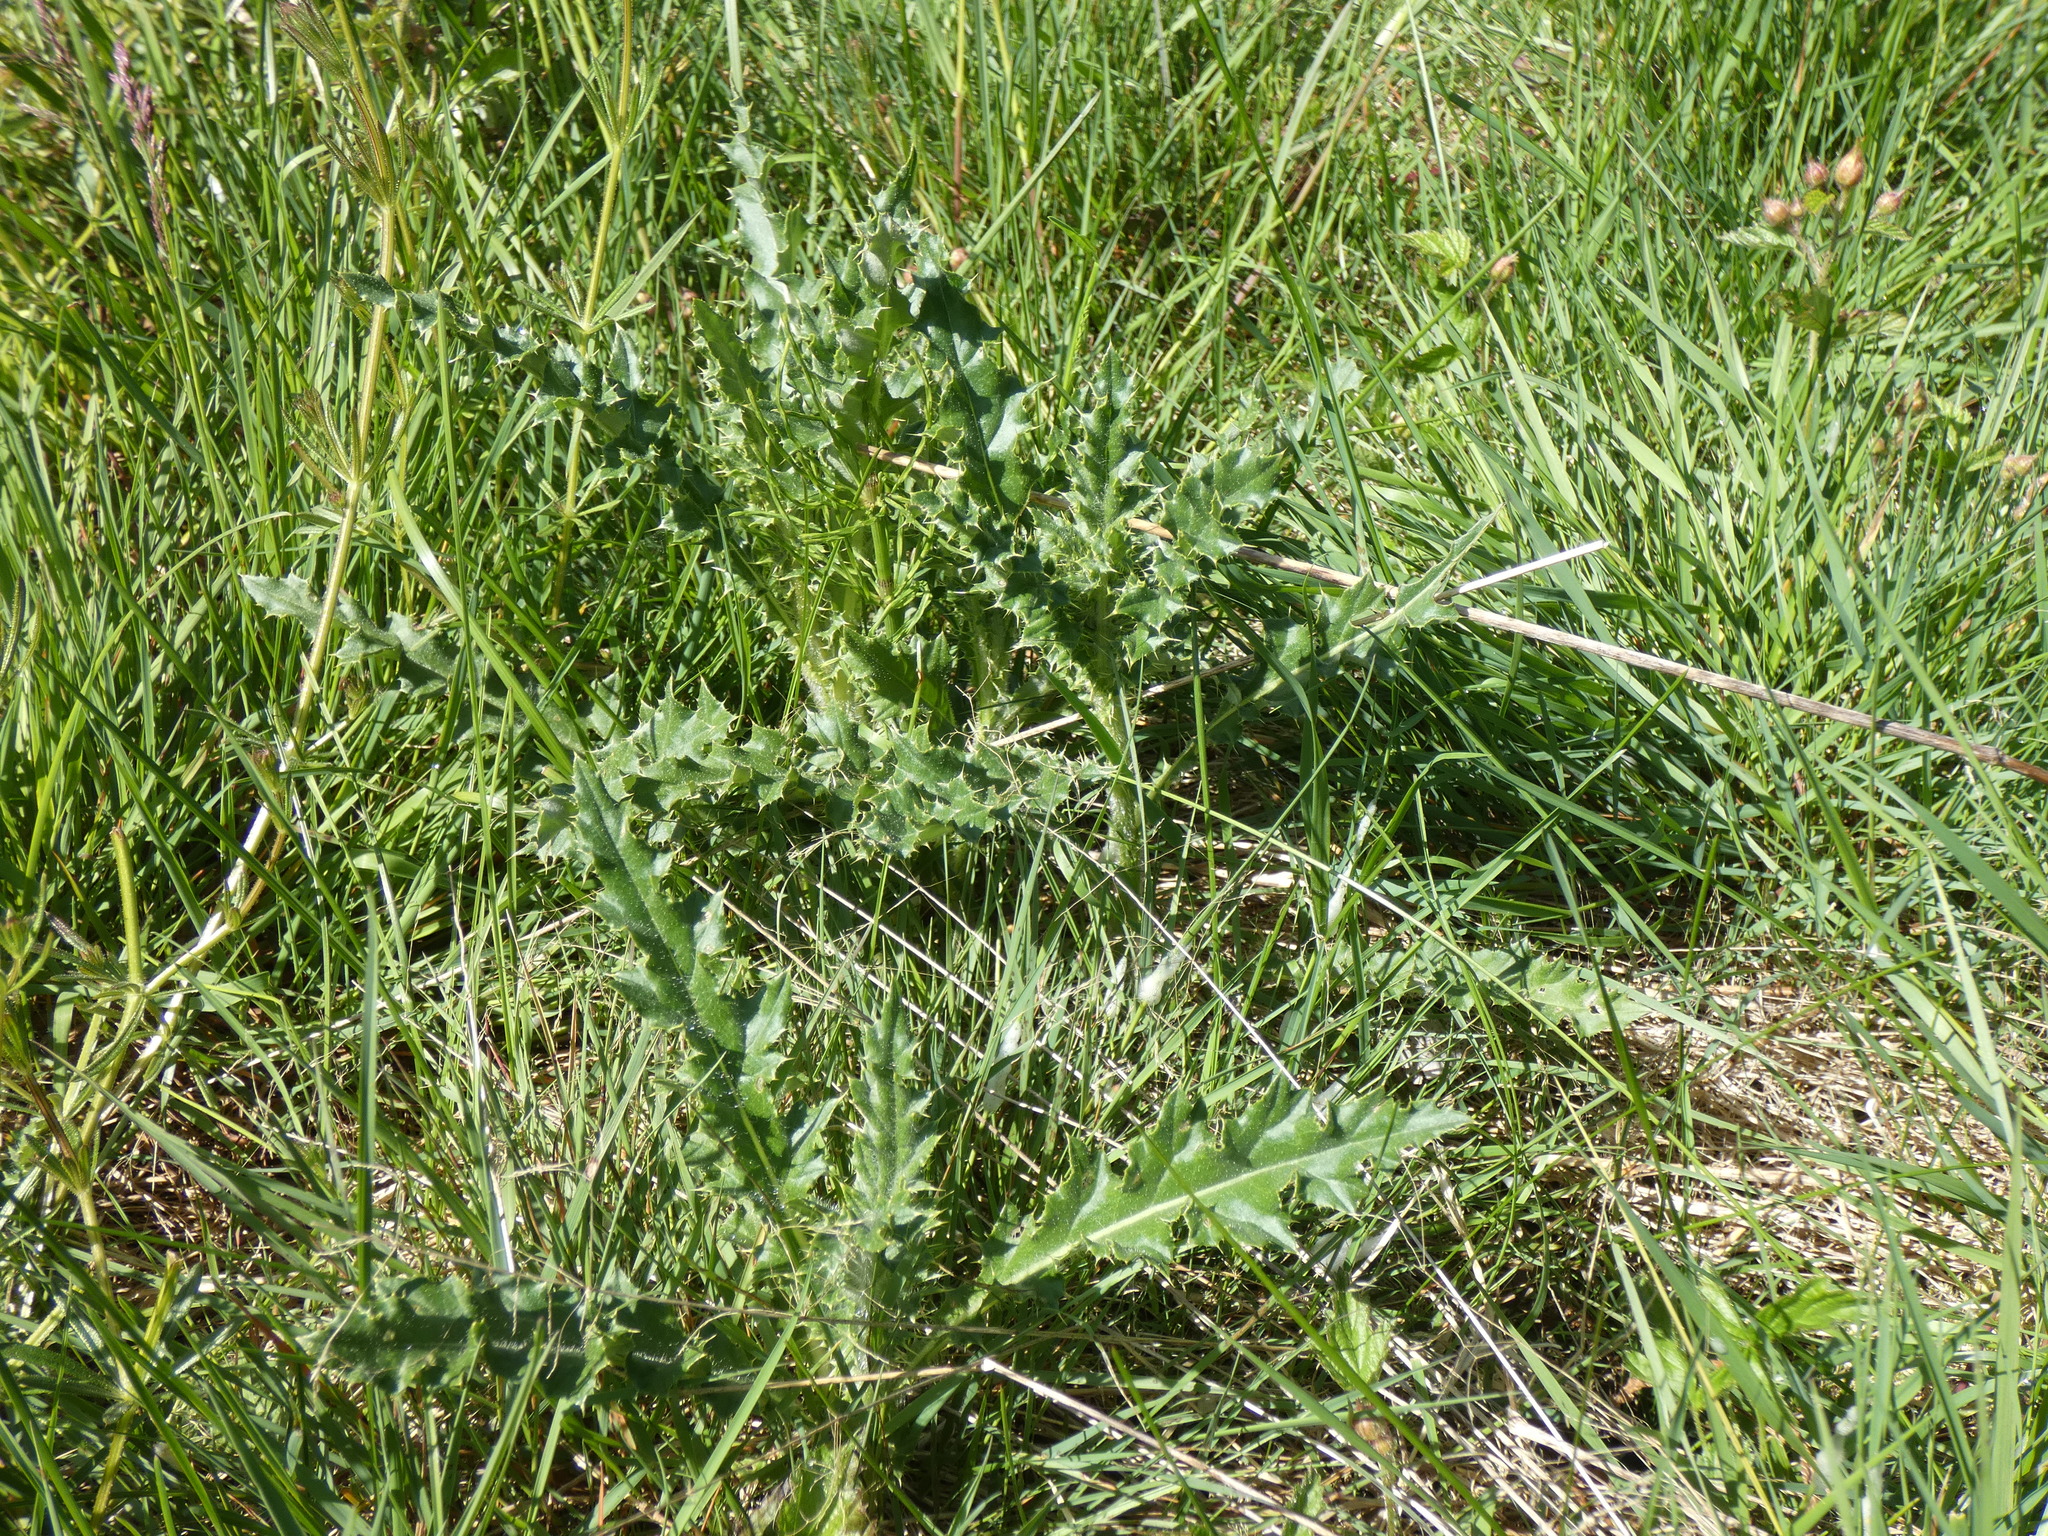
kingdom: Plantae
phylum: Tracheophyta
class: Magnoliopsida
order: Asterales
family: Asteraceae
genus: Cirsium
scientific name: Cirsium arvense
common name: Creeping thistle
